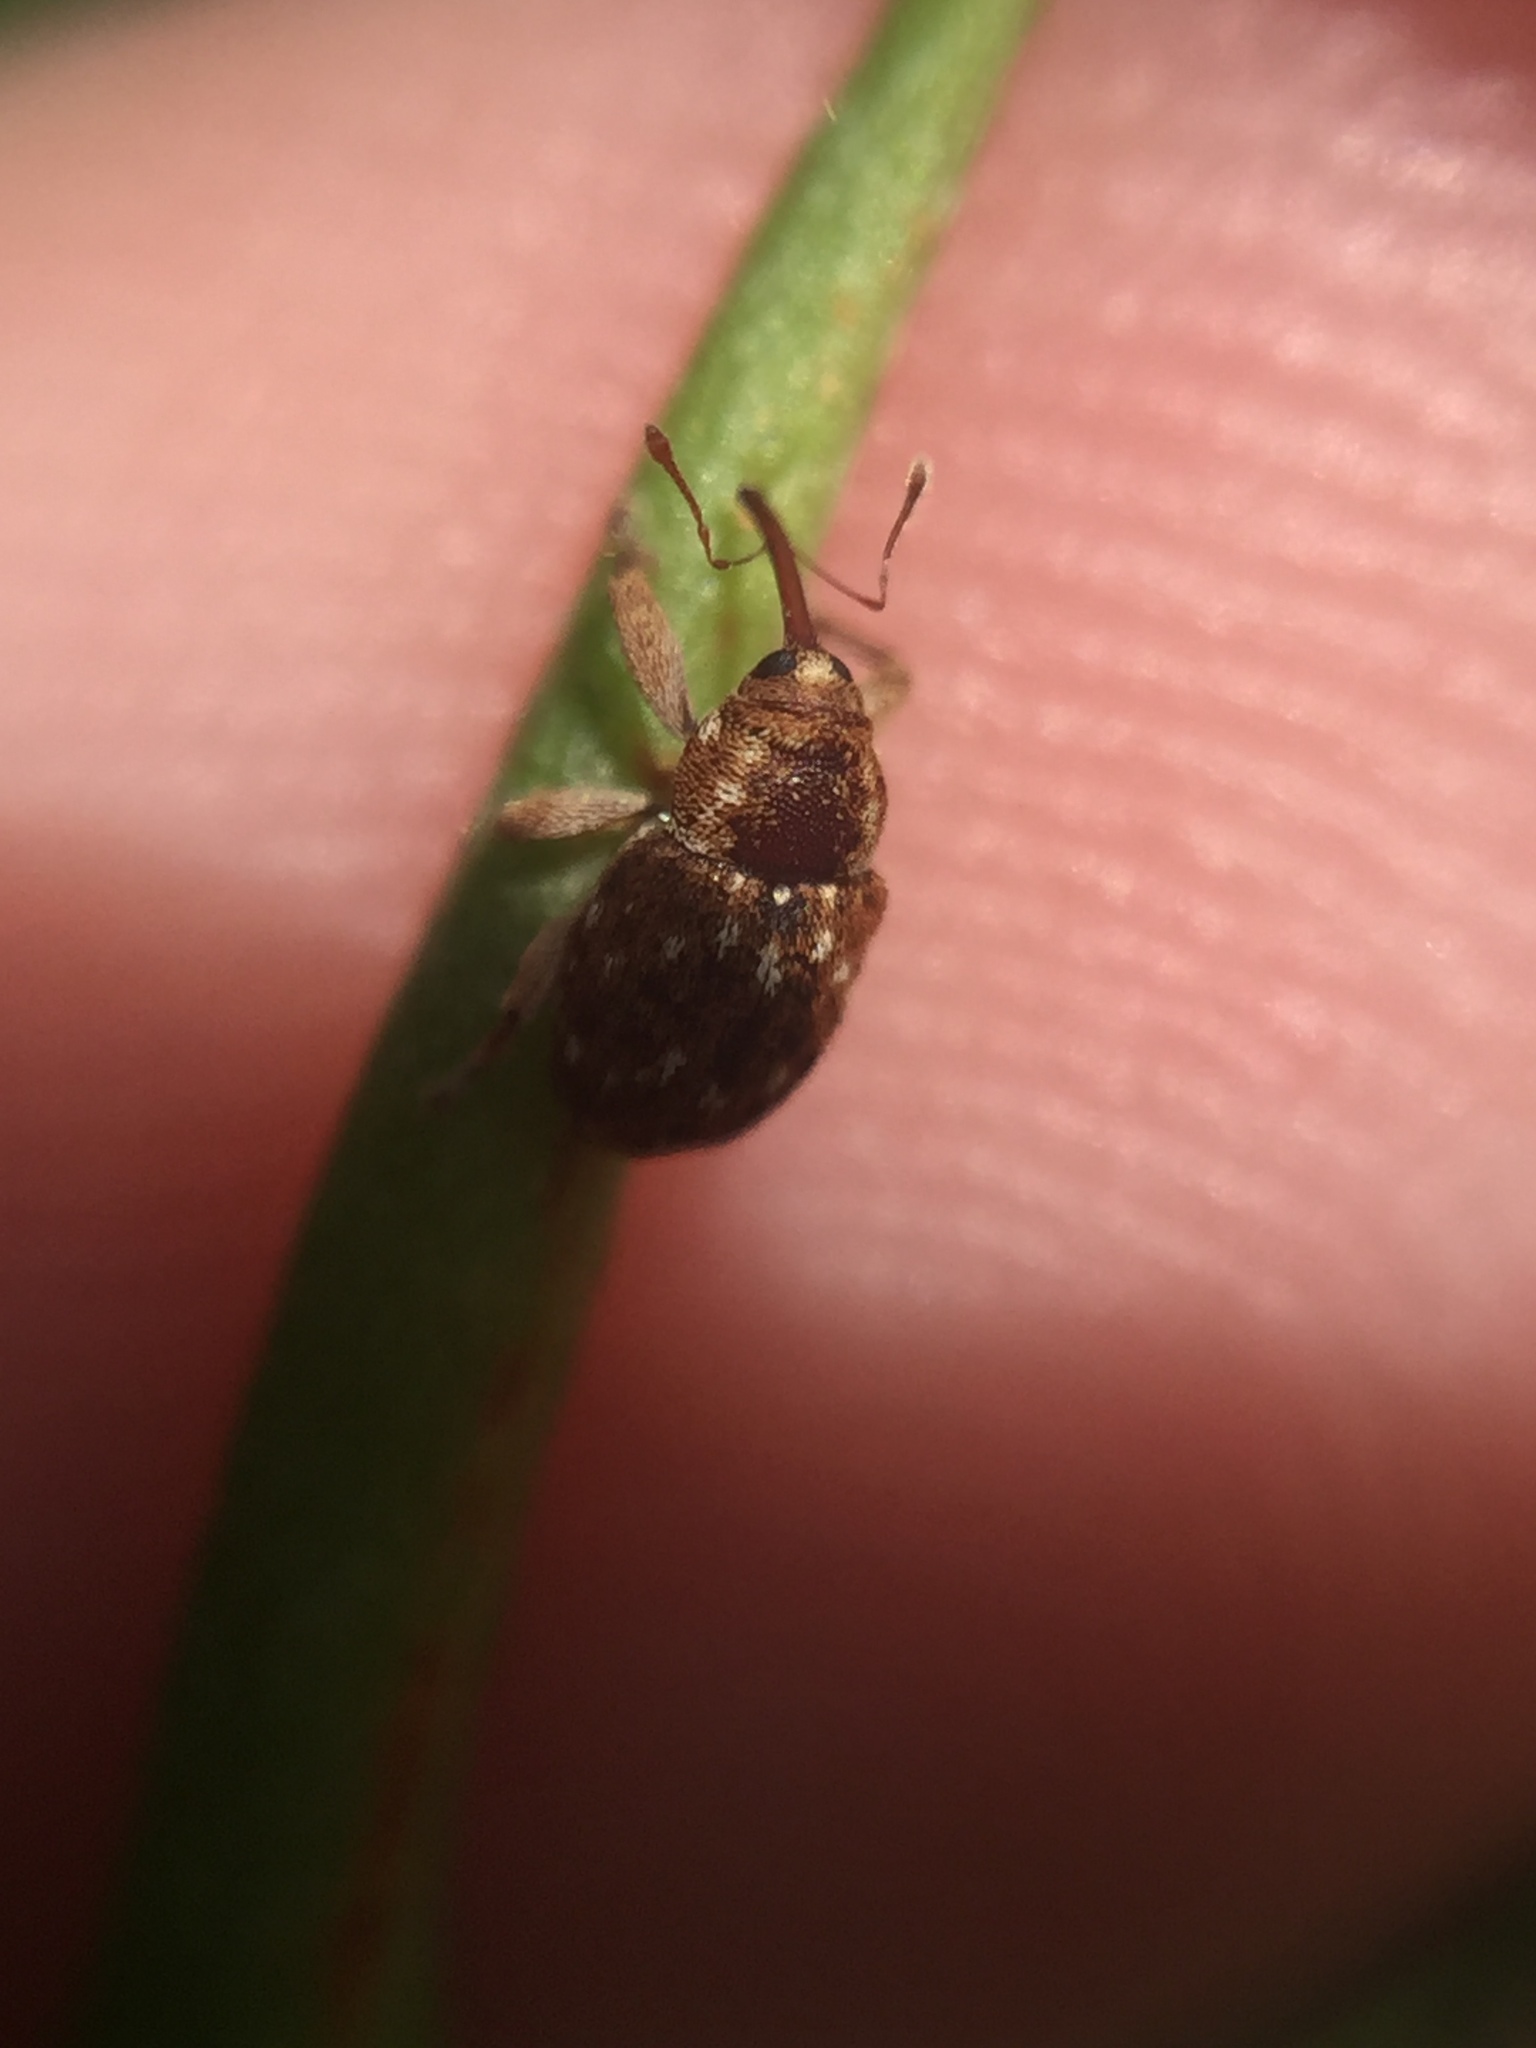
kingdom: Animalia
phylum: Arthropoda
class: Insecta
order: Coleoptera
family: Curculionidae
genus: Storeus
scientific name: Storeus albosignatus
